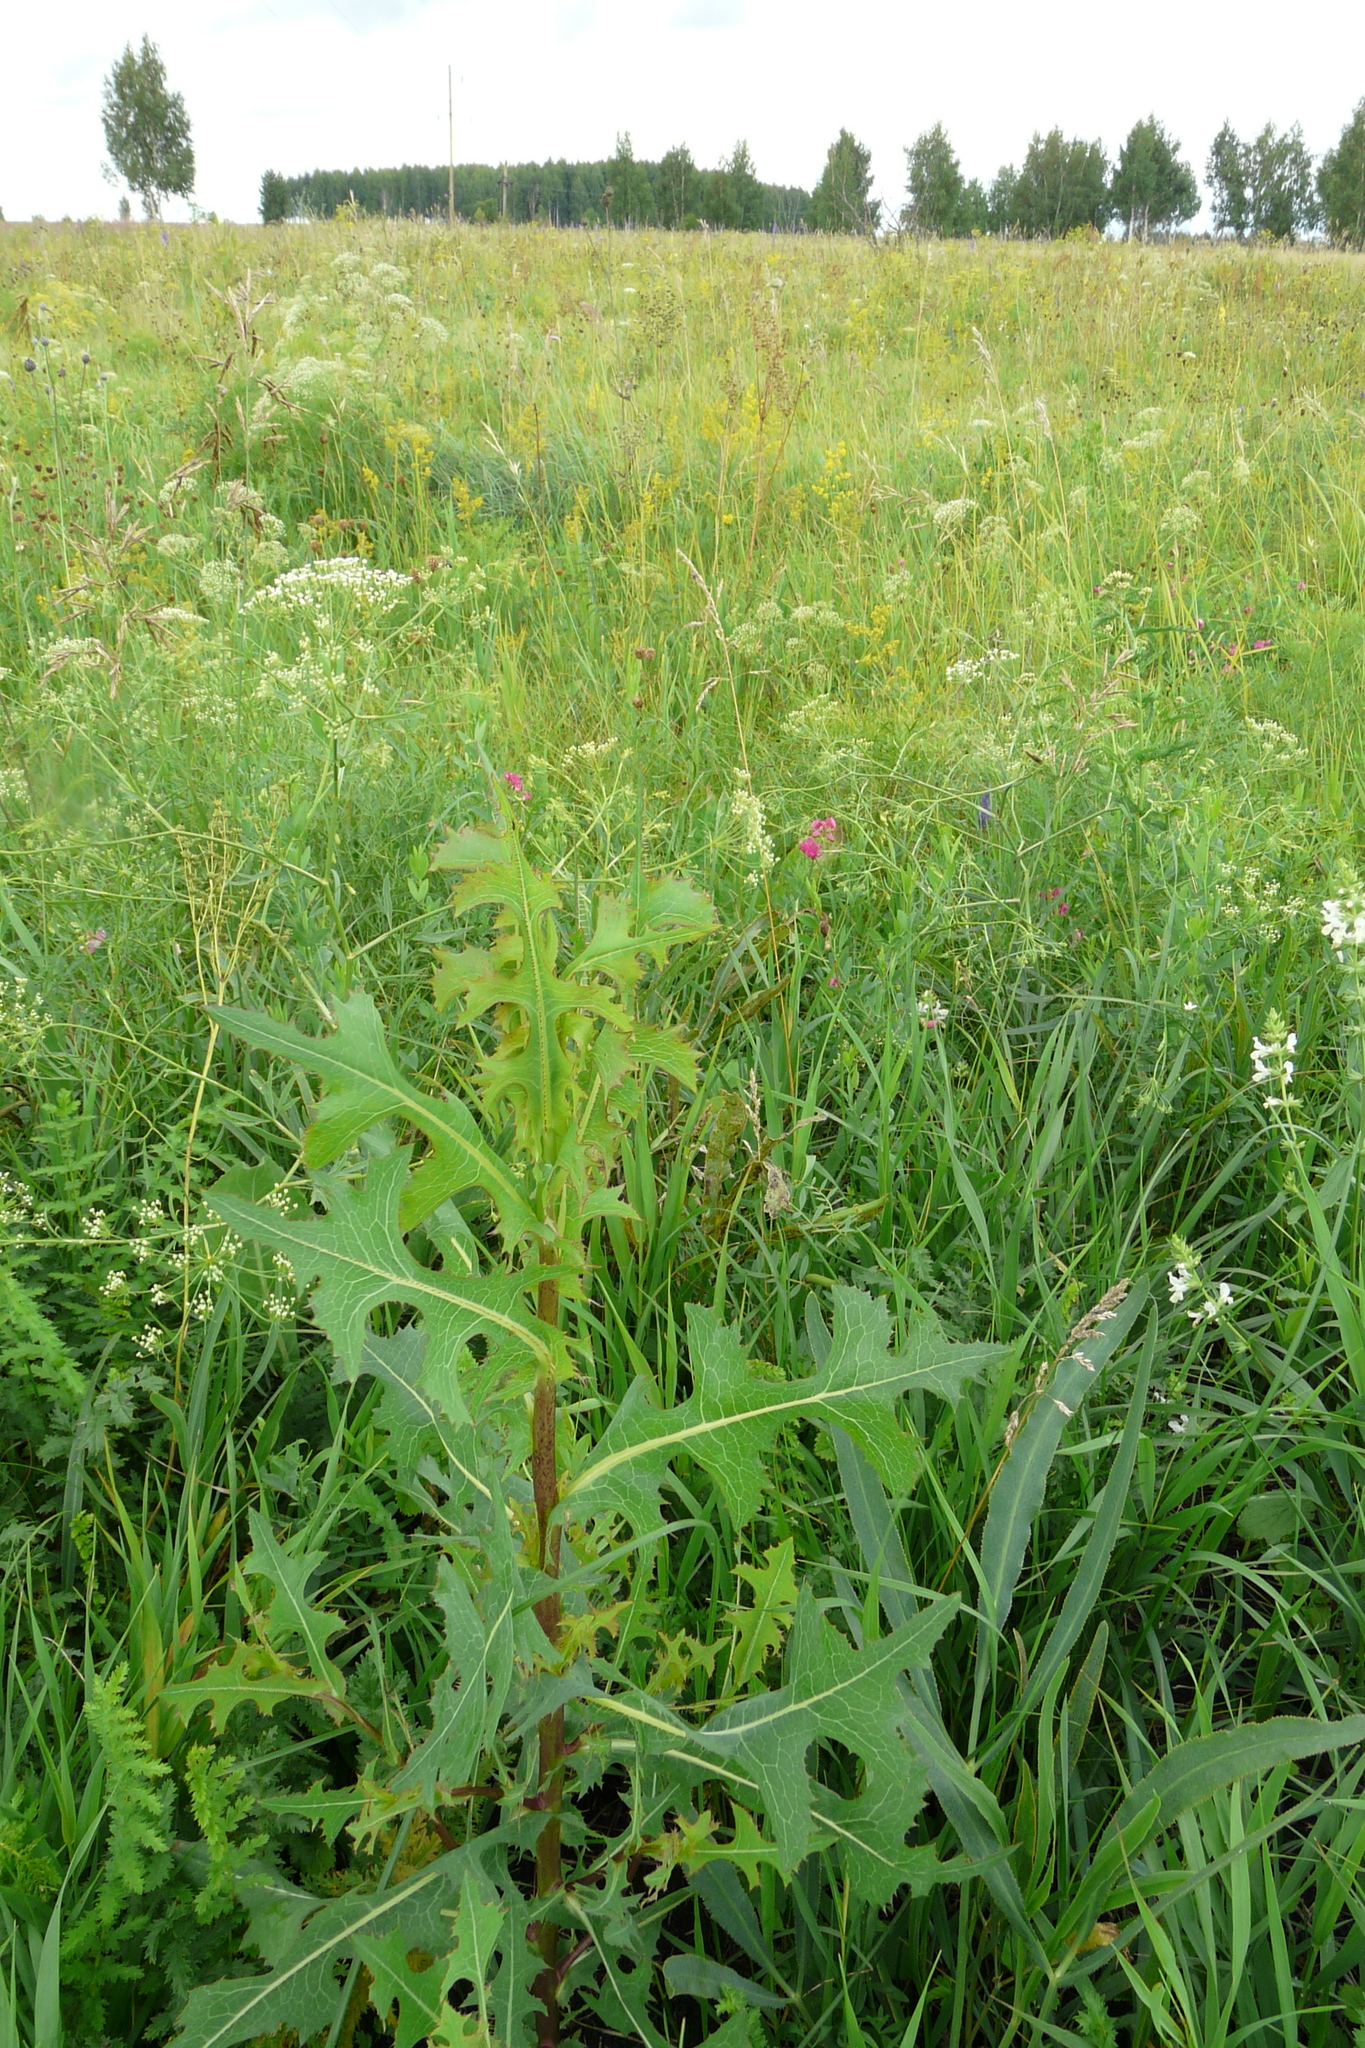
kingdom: Plantae
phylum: Tracheophyta
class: Magnoliopsida
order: Asterales
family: Asteraceae
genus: Lactuca
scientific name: Lactuca serriola
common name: Prickly lettuce
